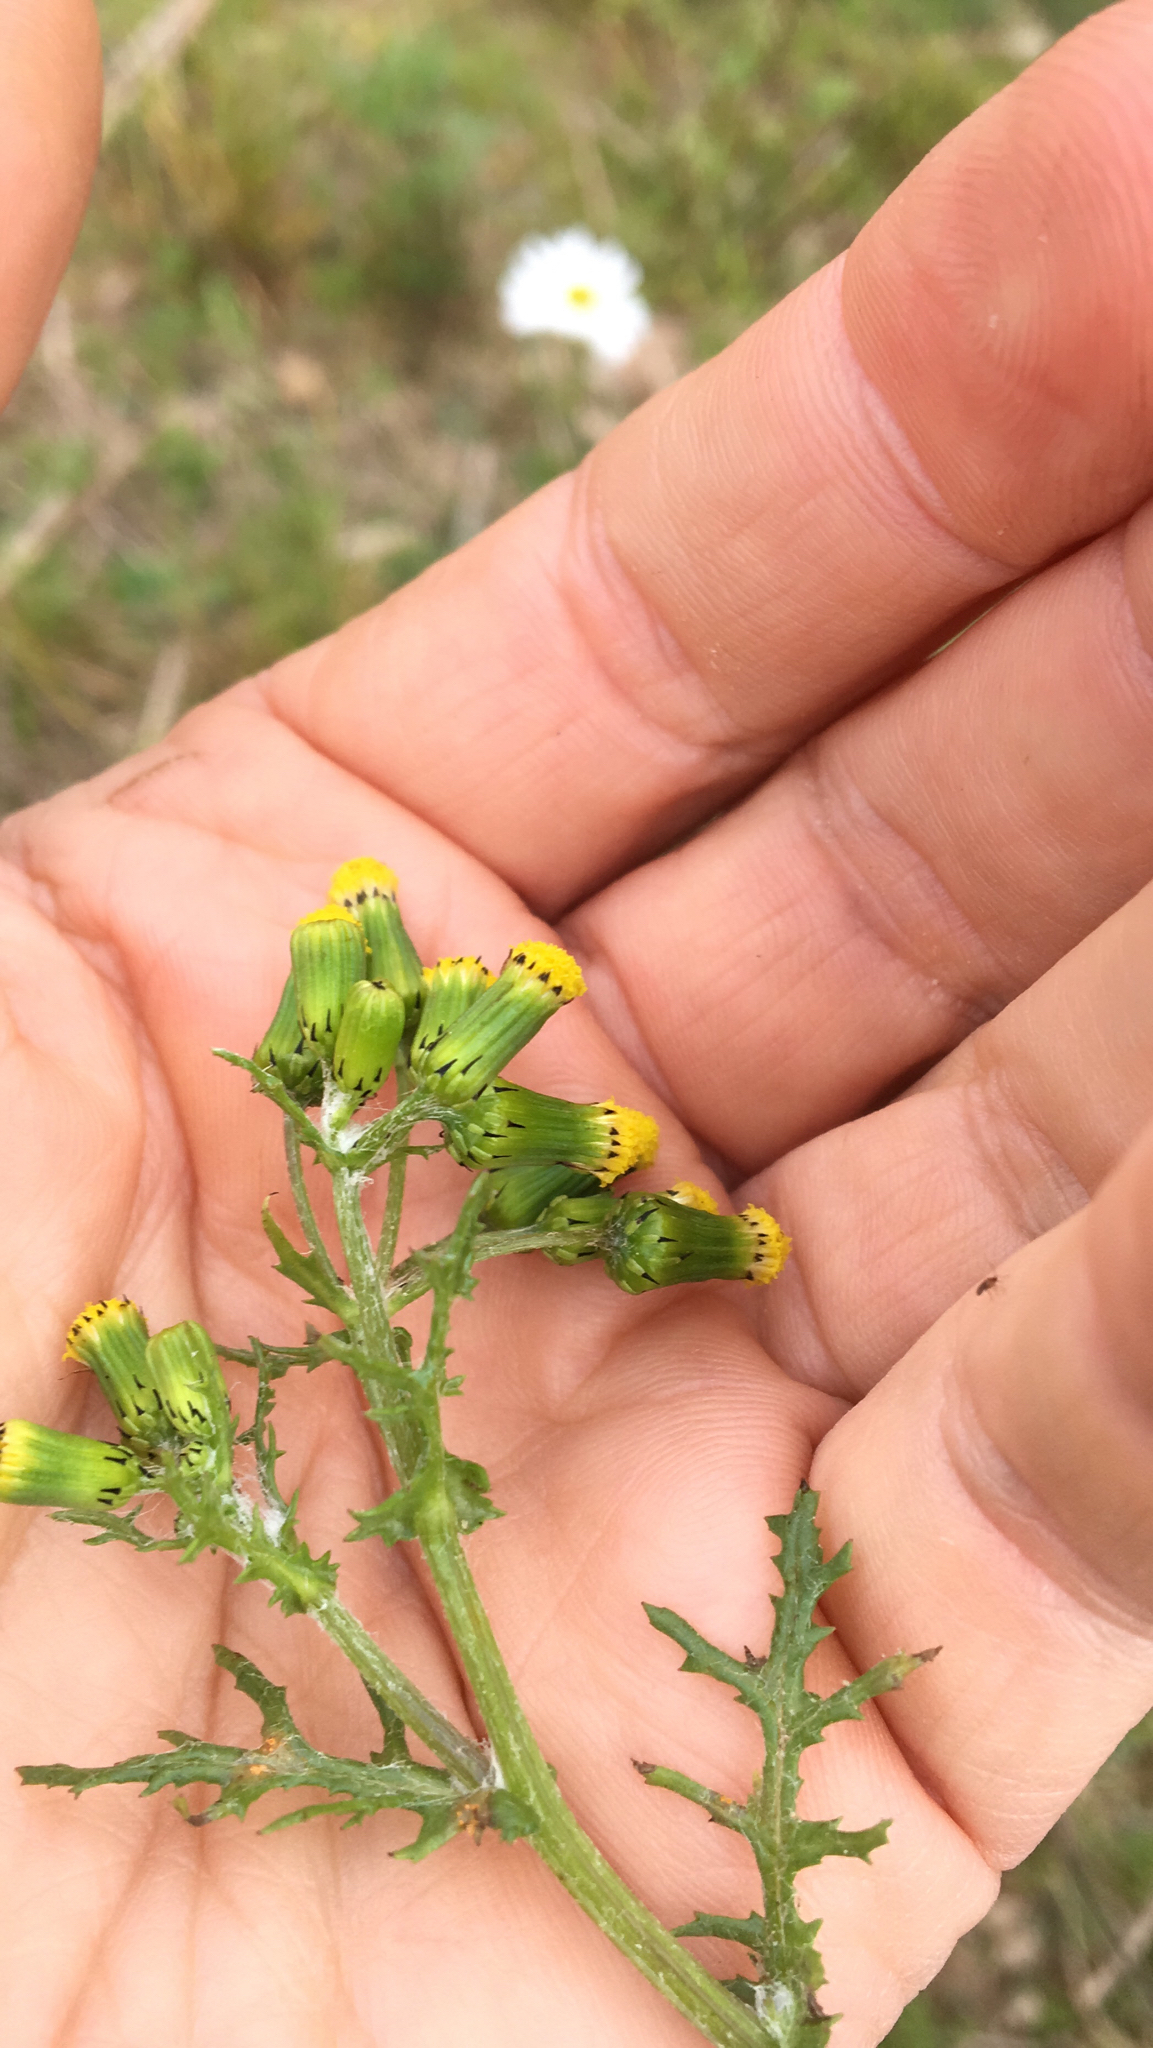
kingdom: Plantae
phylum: Tracheophyta
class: Magnoliopsida
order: Asterales
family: Asteraceae
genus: Senecio
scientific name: Senecio vulgaris
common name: Old-man-in-the-spring
